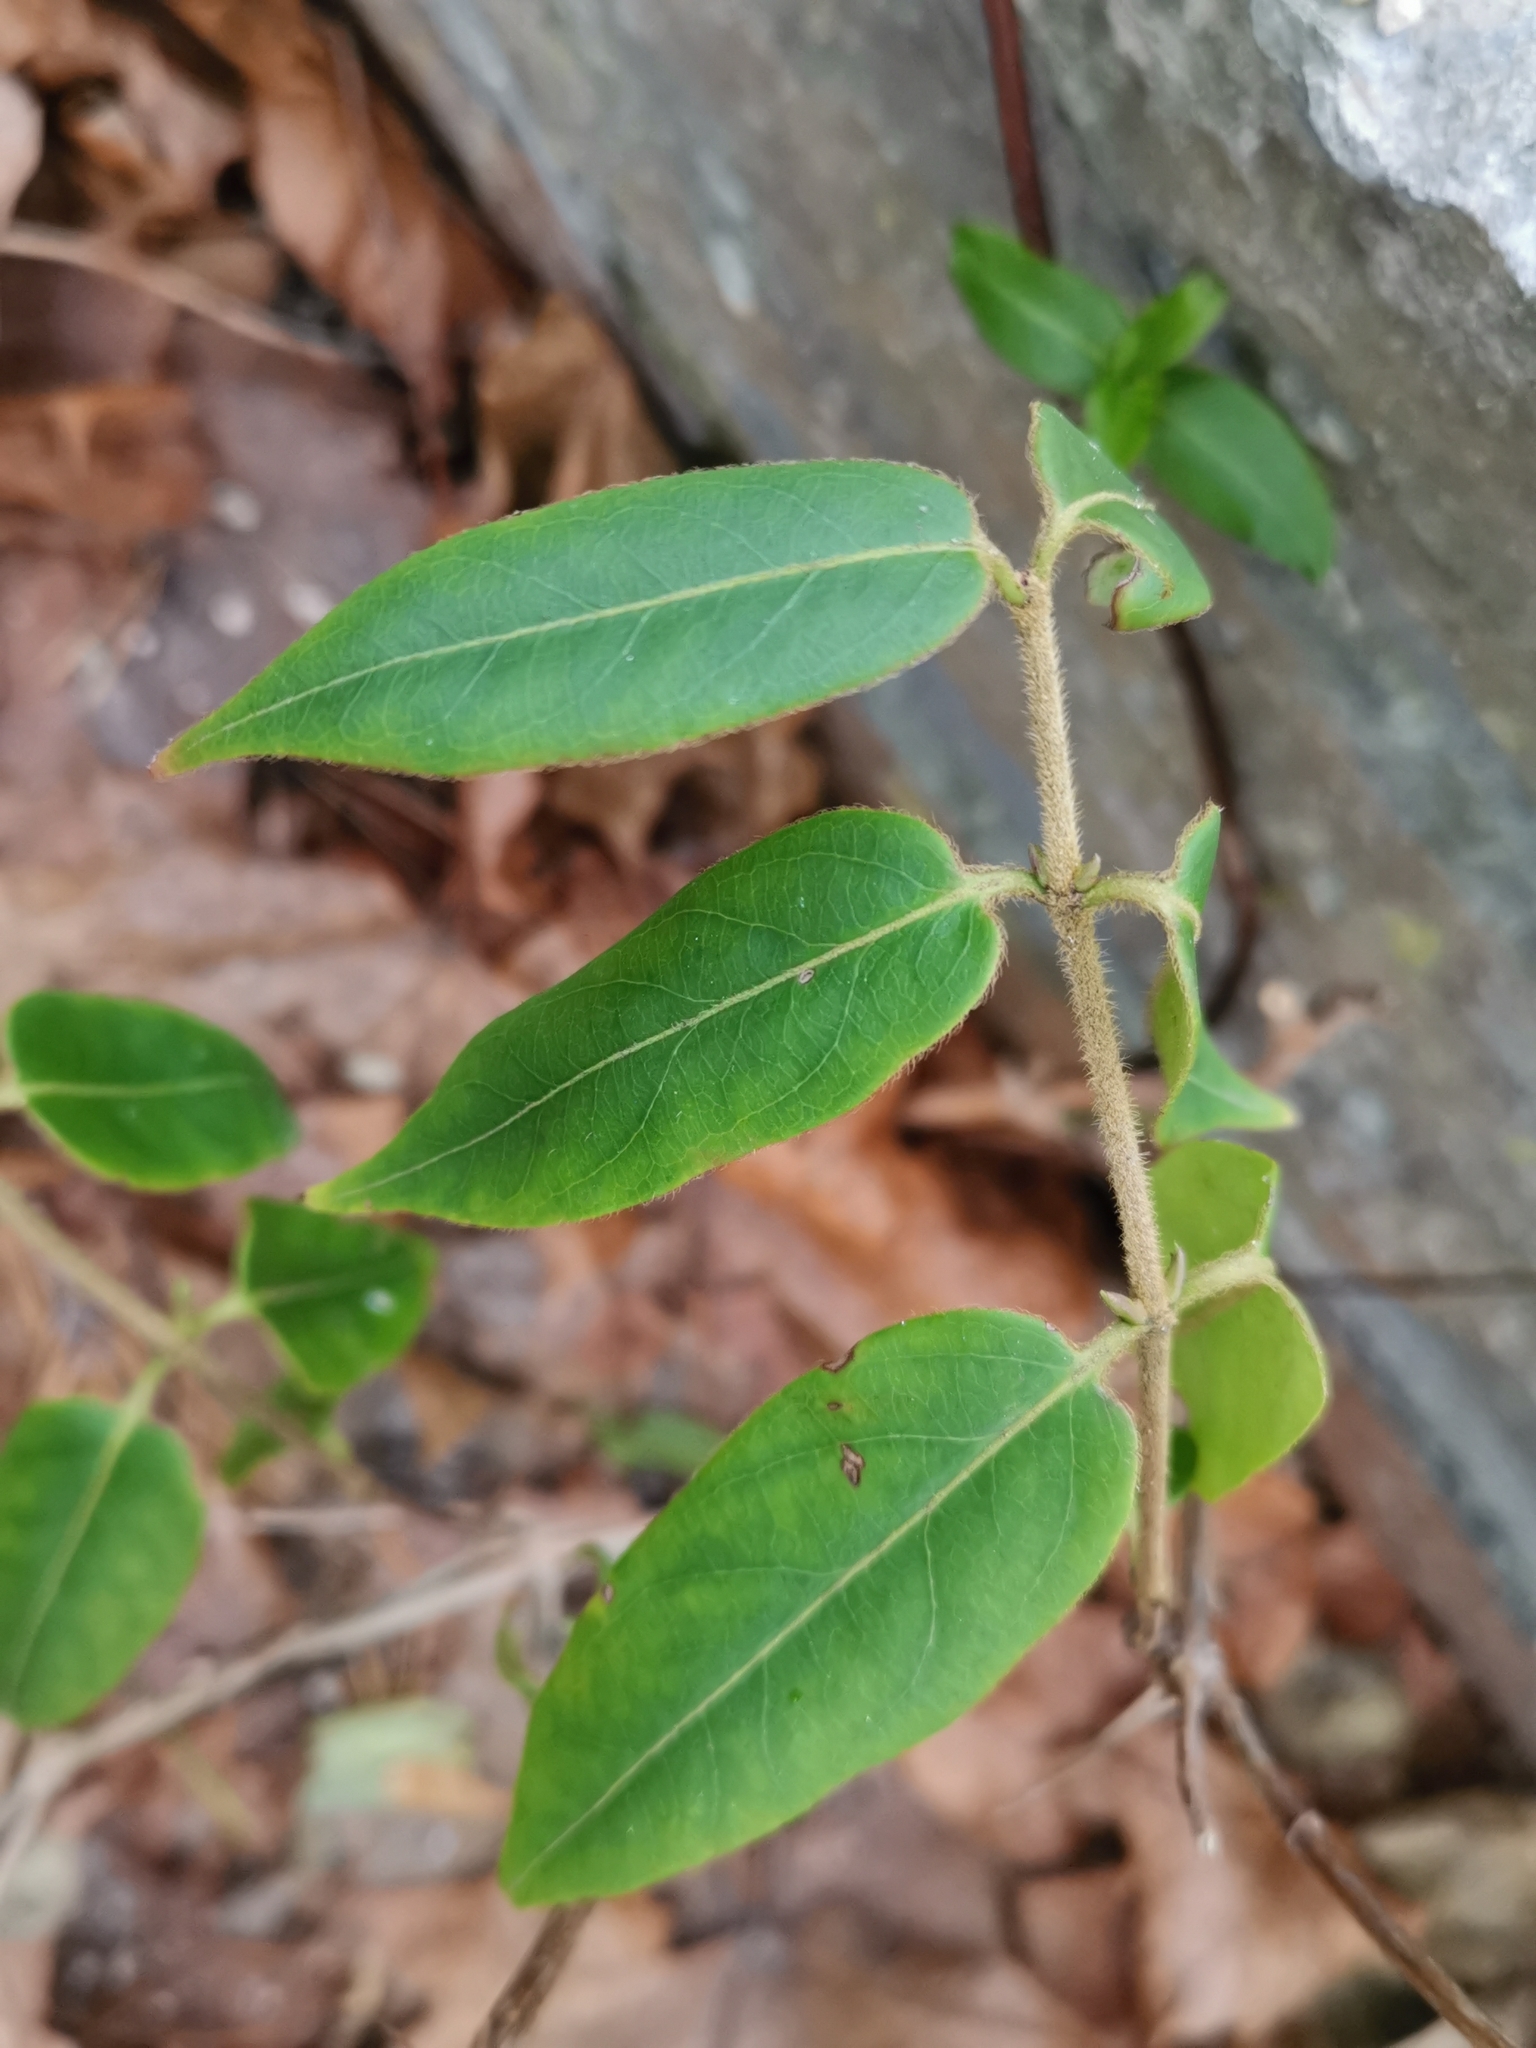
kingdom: Plantae
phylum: Tracheophyta
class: Magnoliopsida
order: Dipsacales
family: Caprifoliaceae
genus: Lonicera
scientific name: Lonicera acuminata
